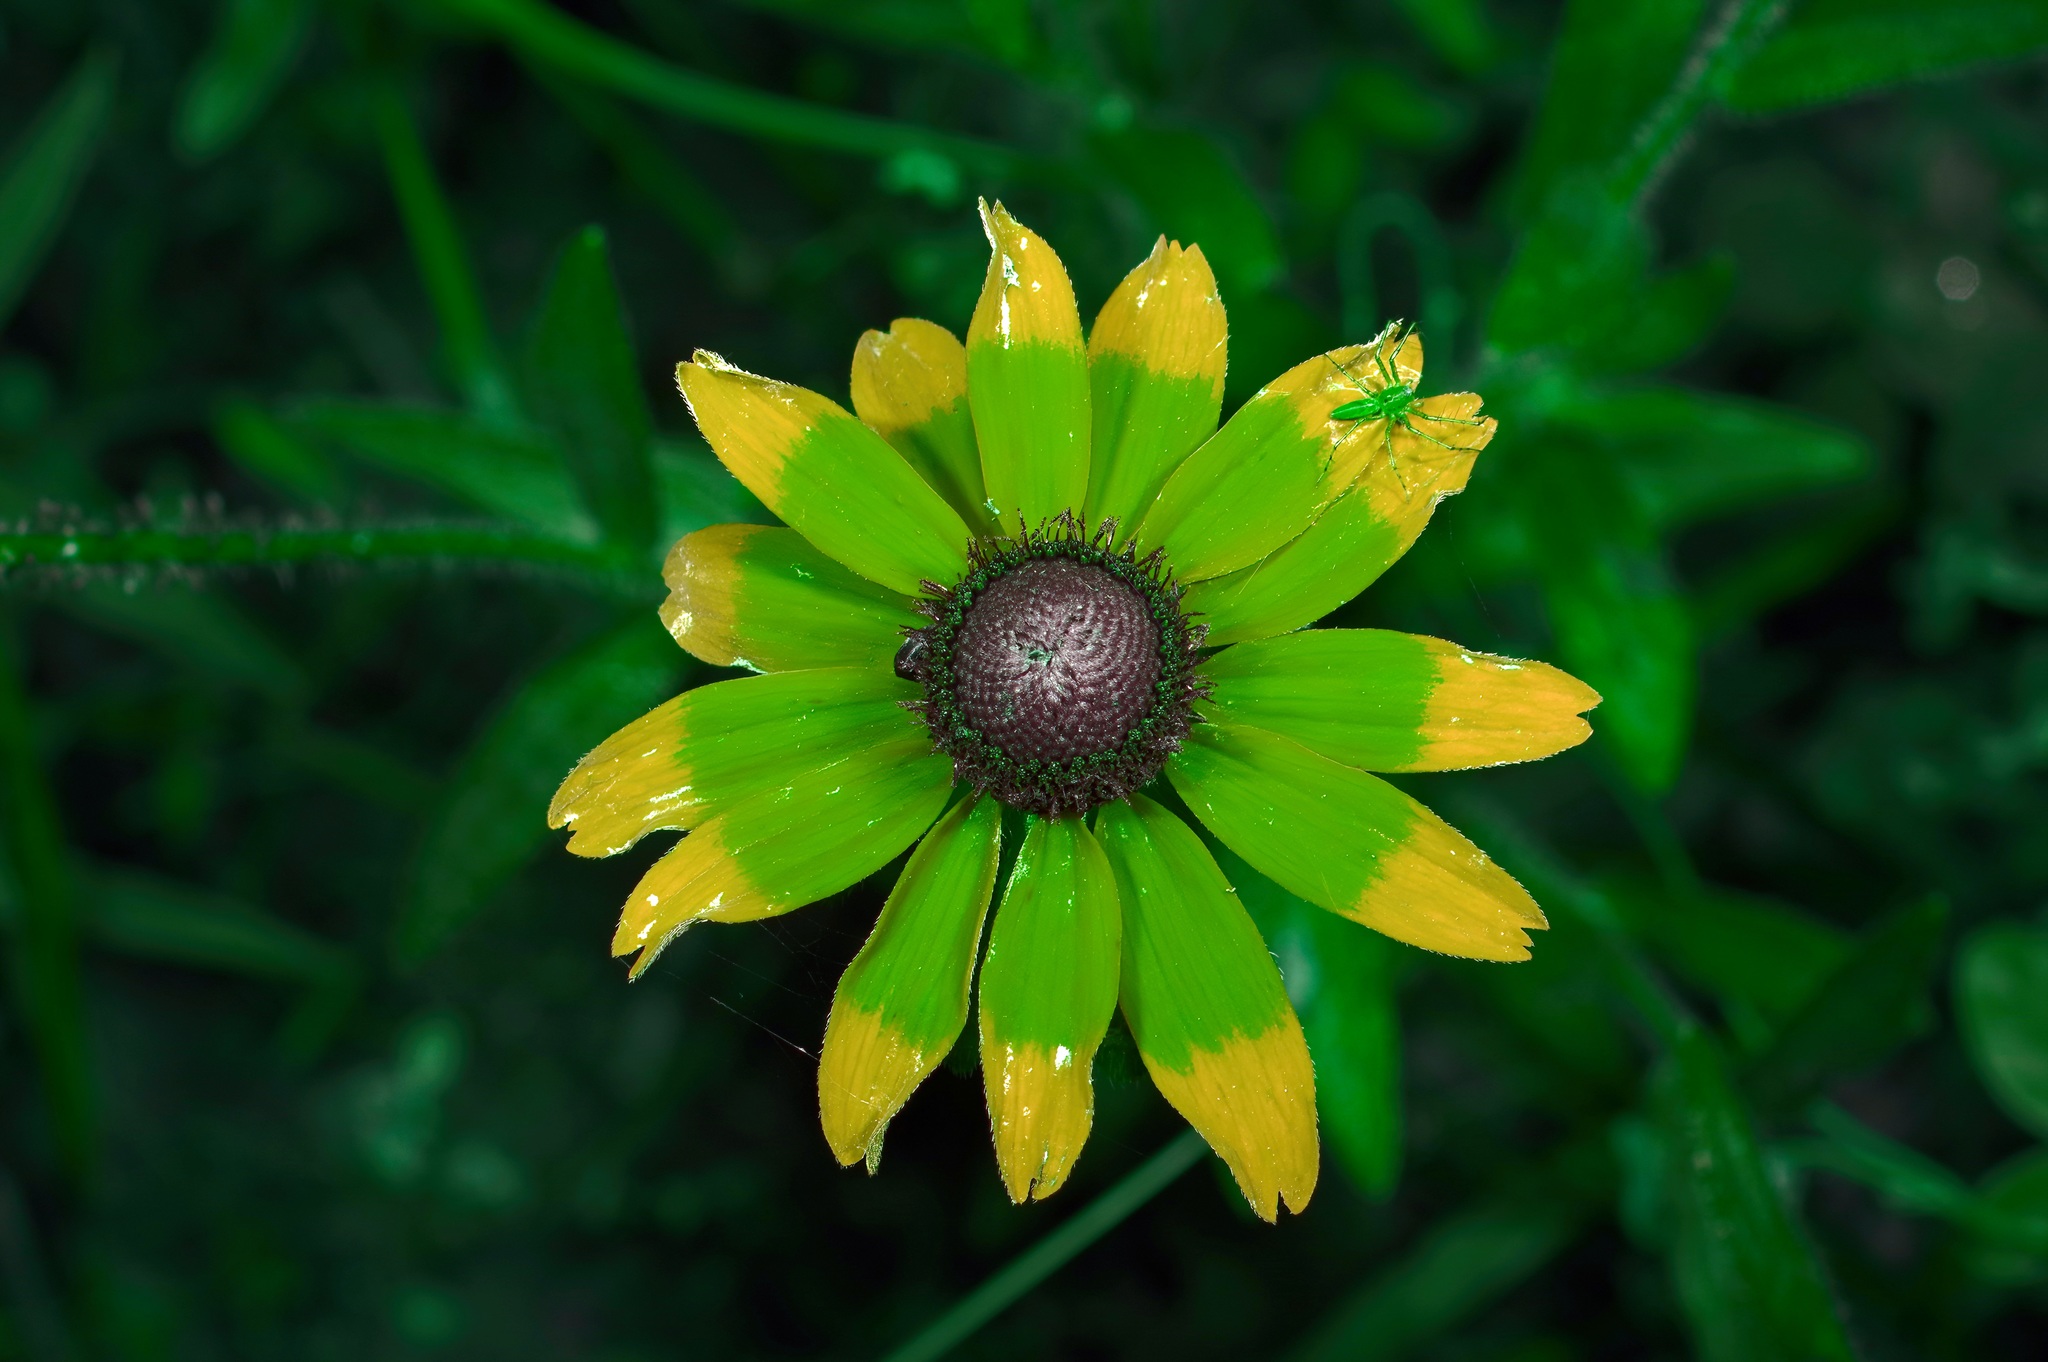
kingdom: Plantae
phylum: Tracheophyta
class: Magnoliopsida
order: Asterales
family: Asteraceae
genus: Rudbeckia
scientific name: Rudbeckia hirta
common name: Black-eyed-susan
